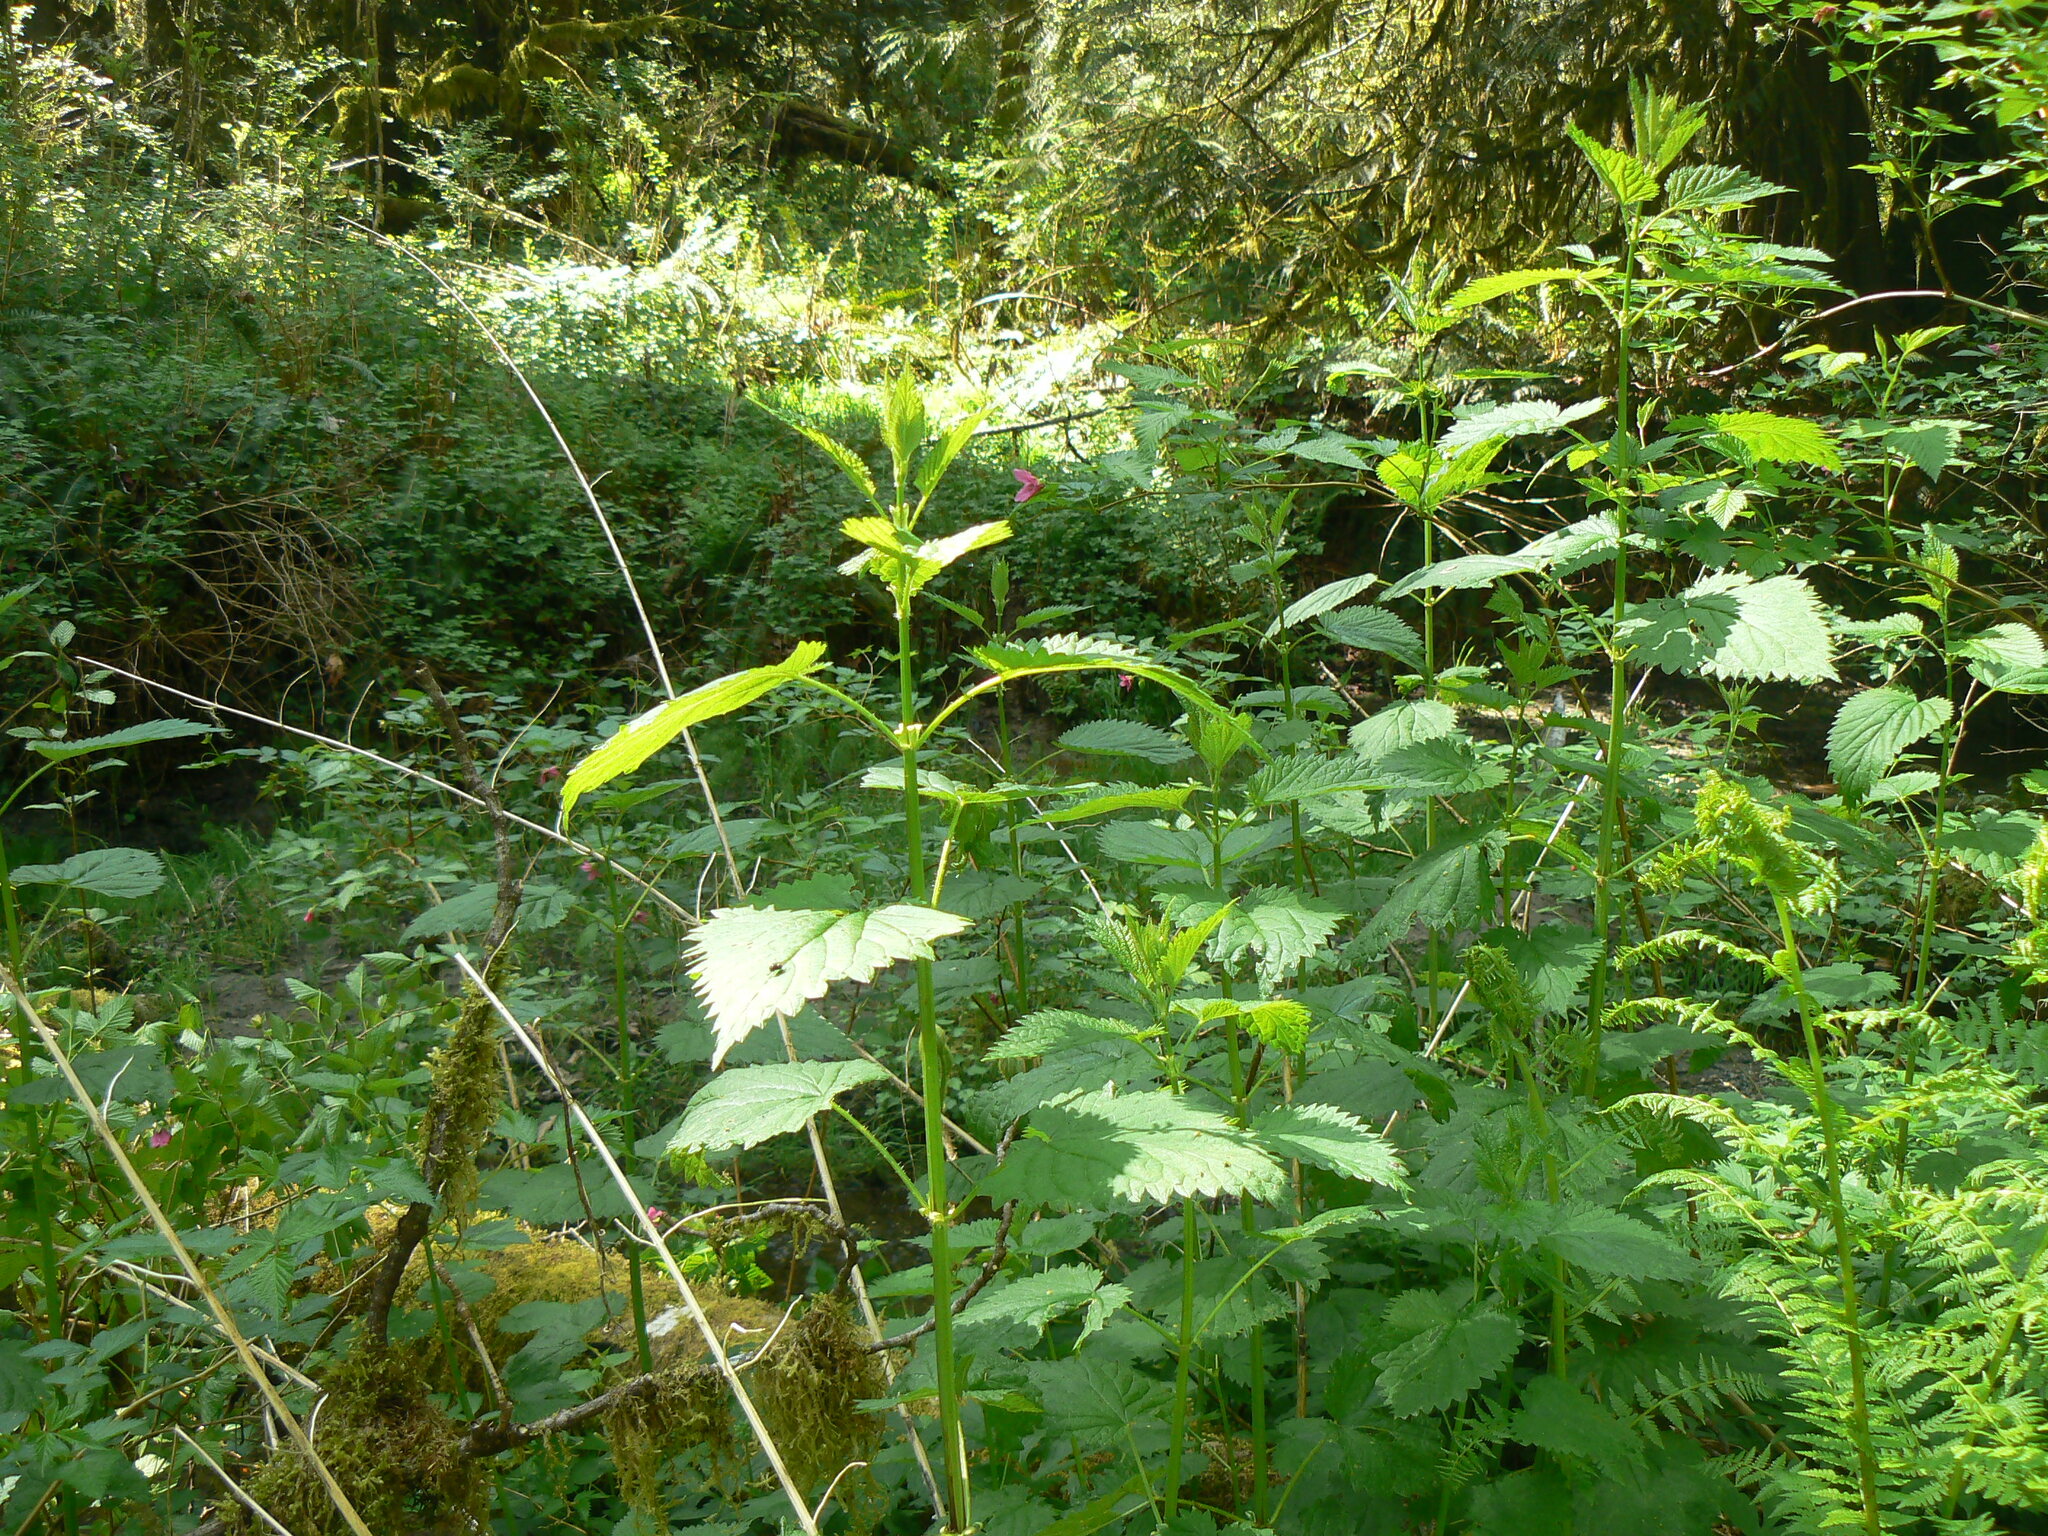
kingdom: Plantae
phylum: Tracheophyta
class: Magnoliopsida
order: Rosales
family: Urticaceae
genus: Urtica
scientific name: Urtica gracilis
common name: Slender stinging nettle
